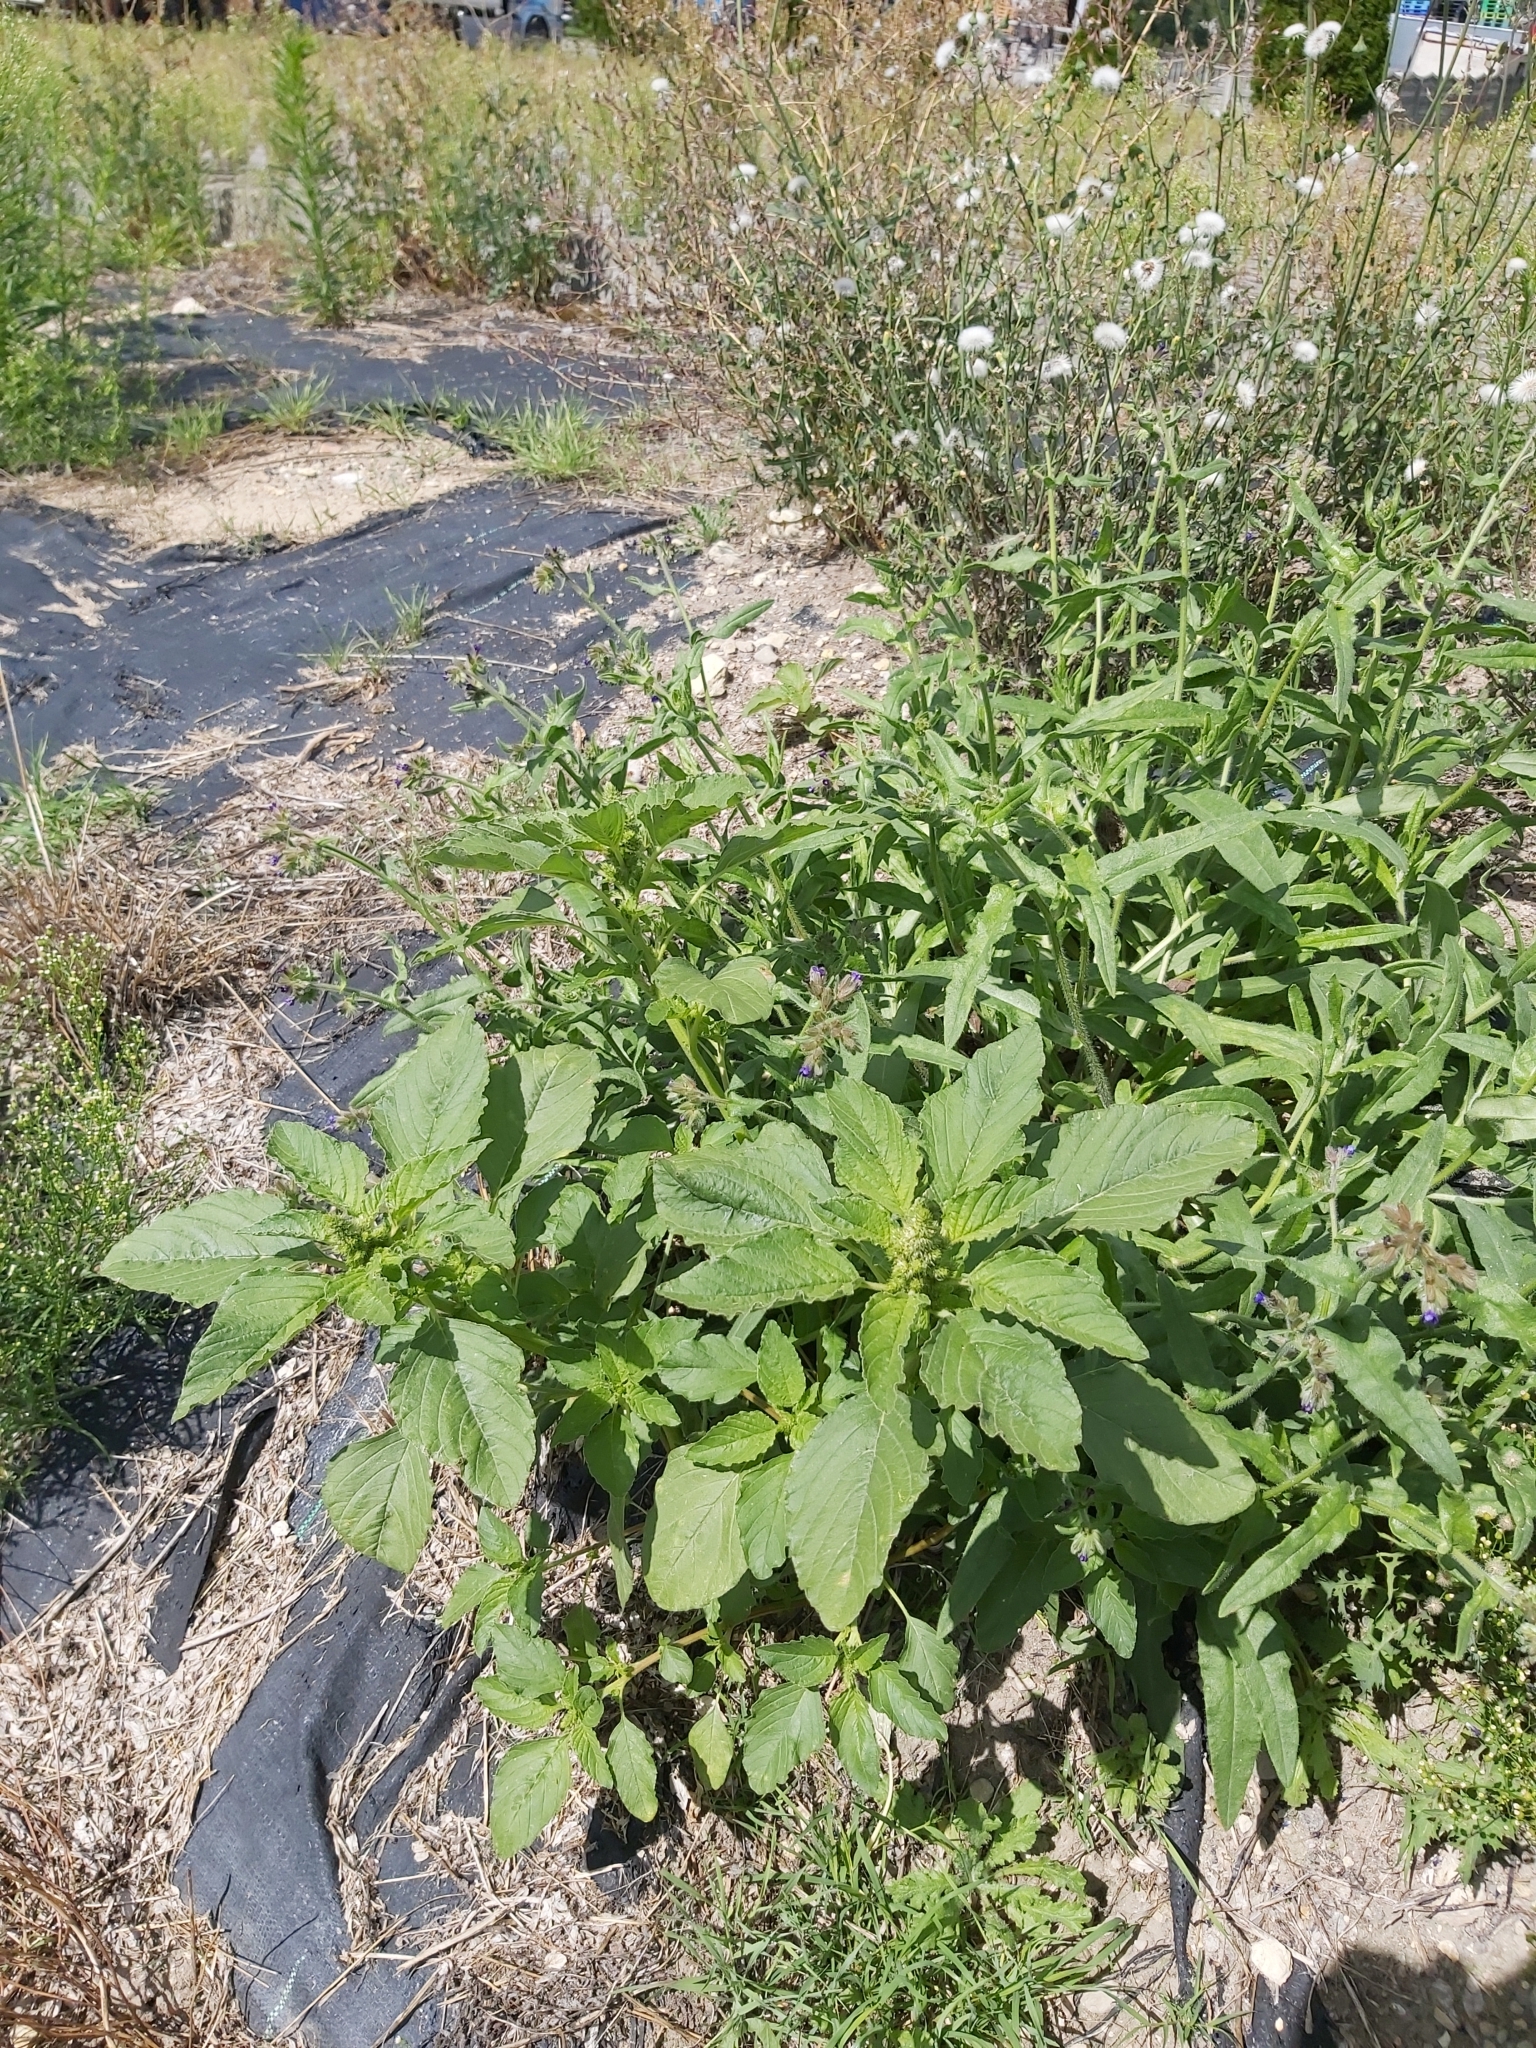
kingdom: Plantae
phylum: Tracheophyta
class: Magnoliopsida
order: Caryophyllales
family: Amaranthaceae
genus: Amaranthus
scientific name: Amaranthus retroflexus
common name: Redroot amaranth
